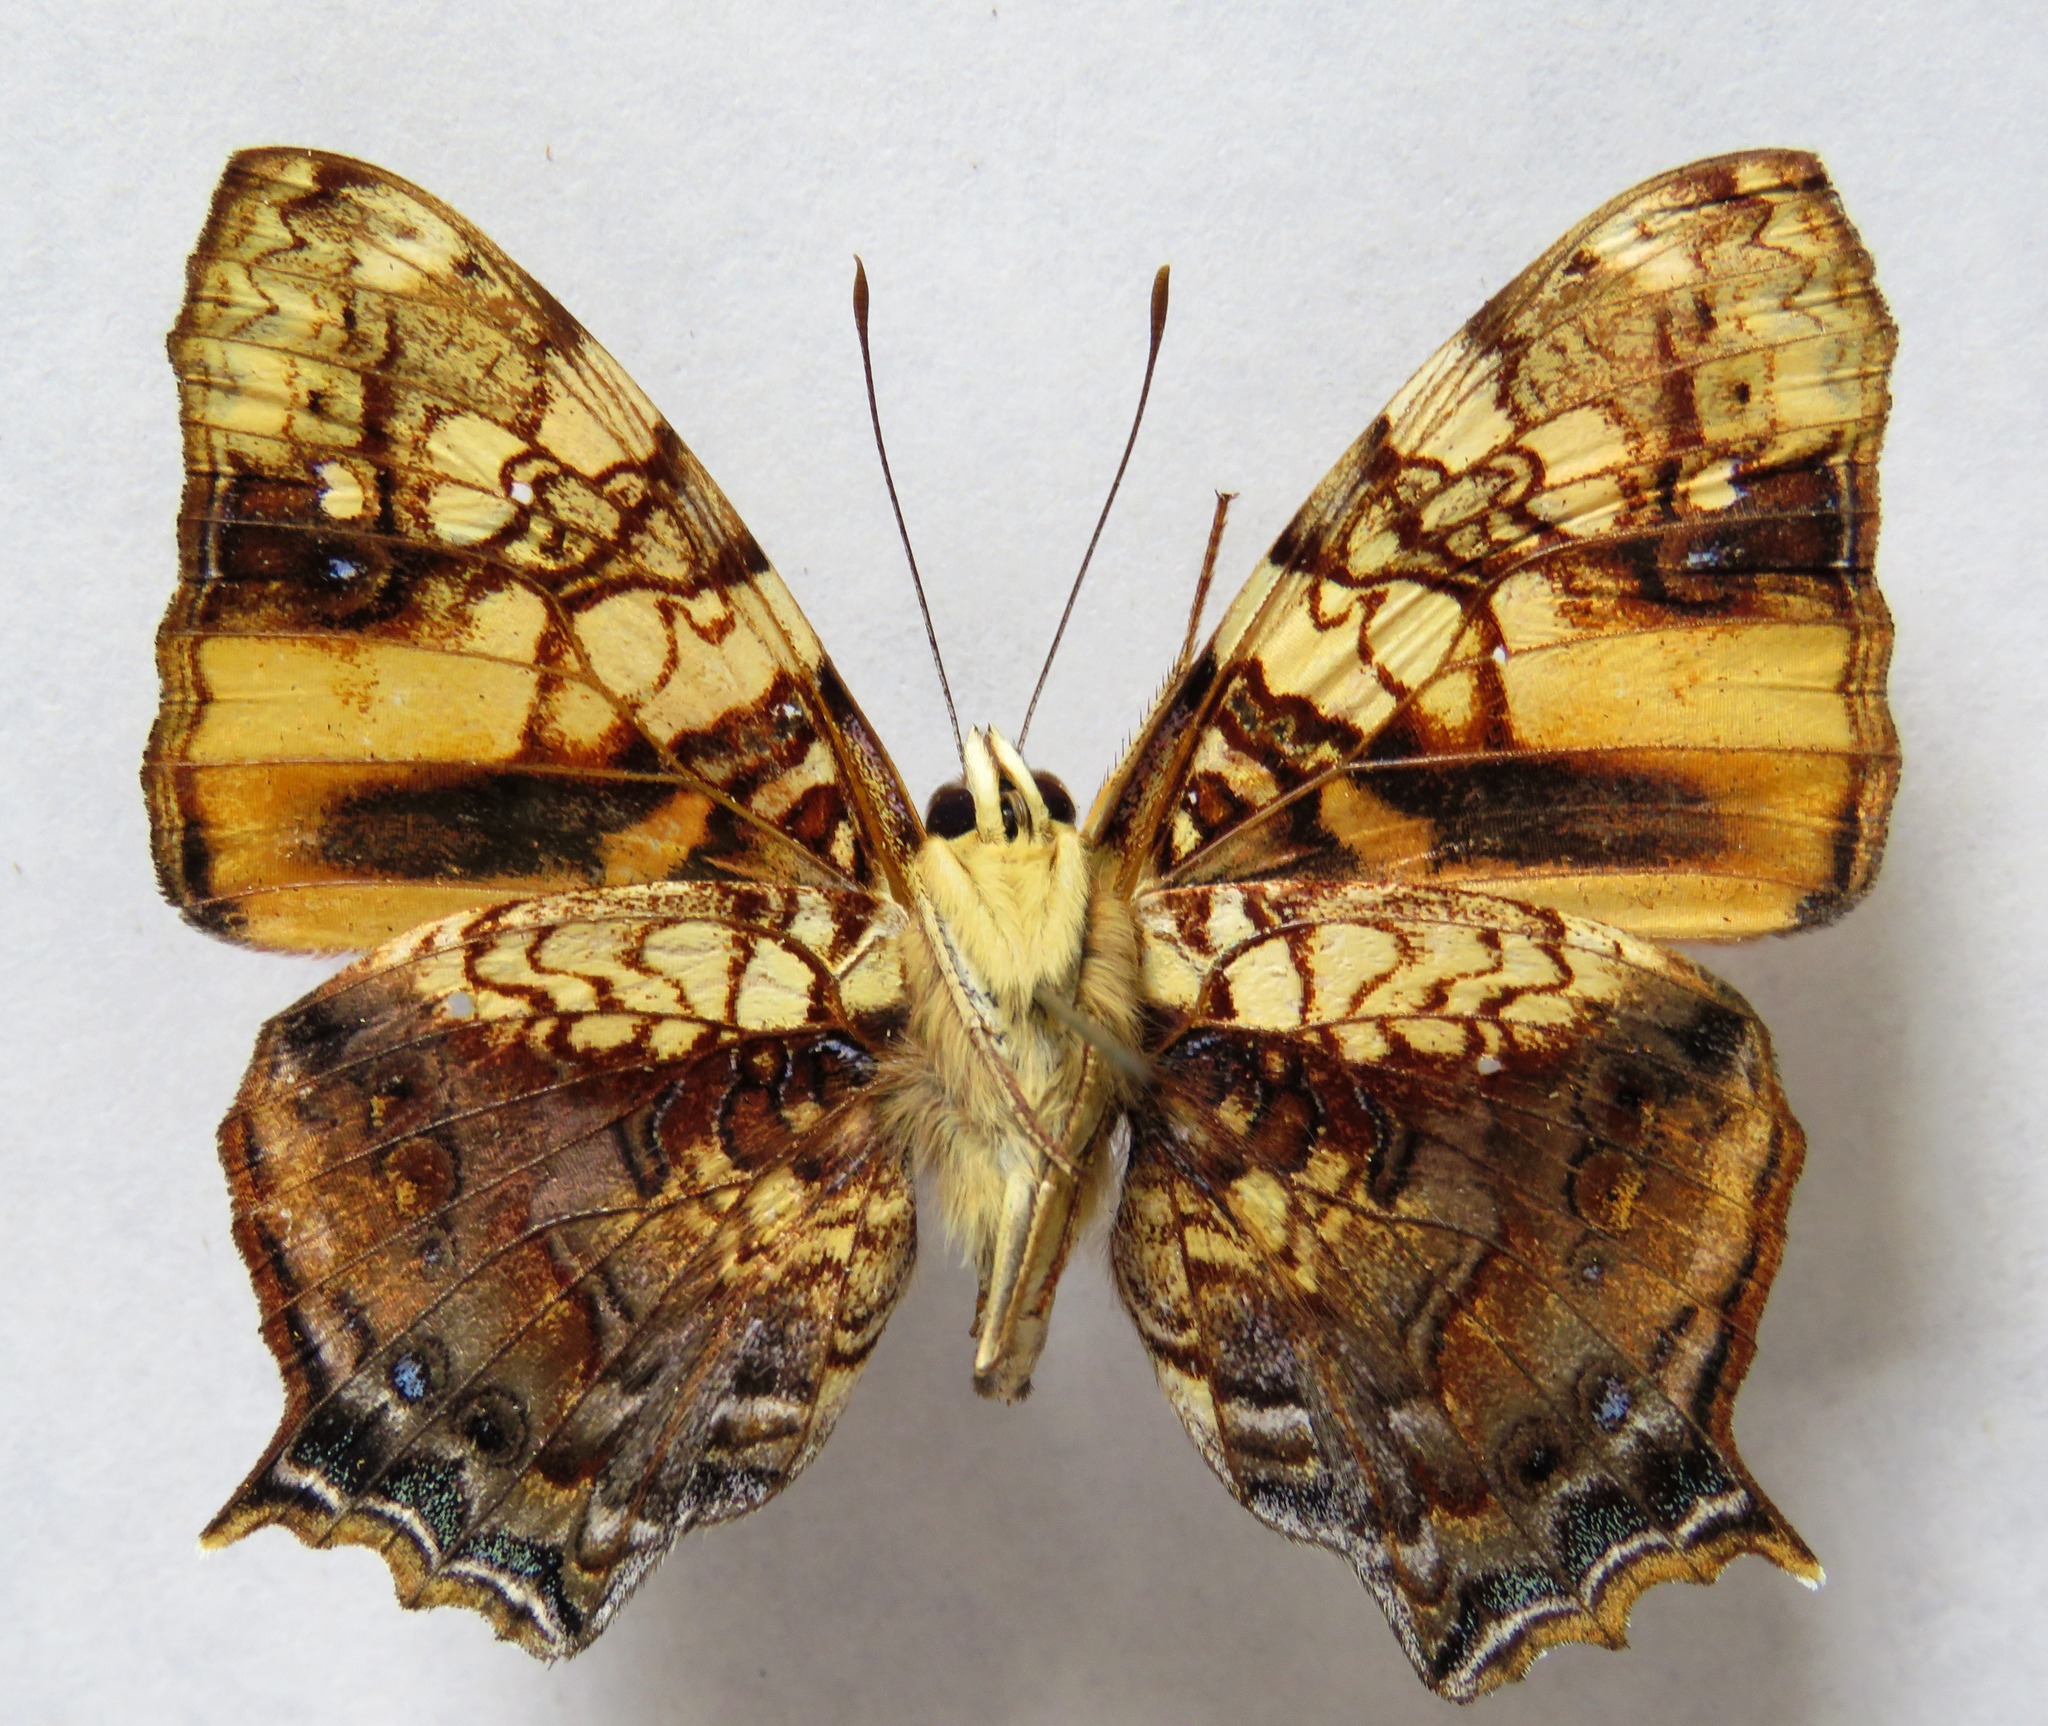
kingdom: Animalia
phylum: Arthropoda
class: Insecta
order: Lepidoptera
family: Nymphalidae
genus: Hypanartia
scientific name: Hypanartia lethe
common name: Orange mapwing
